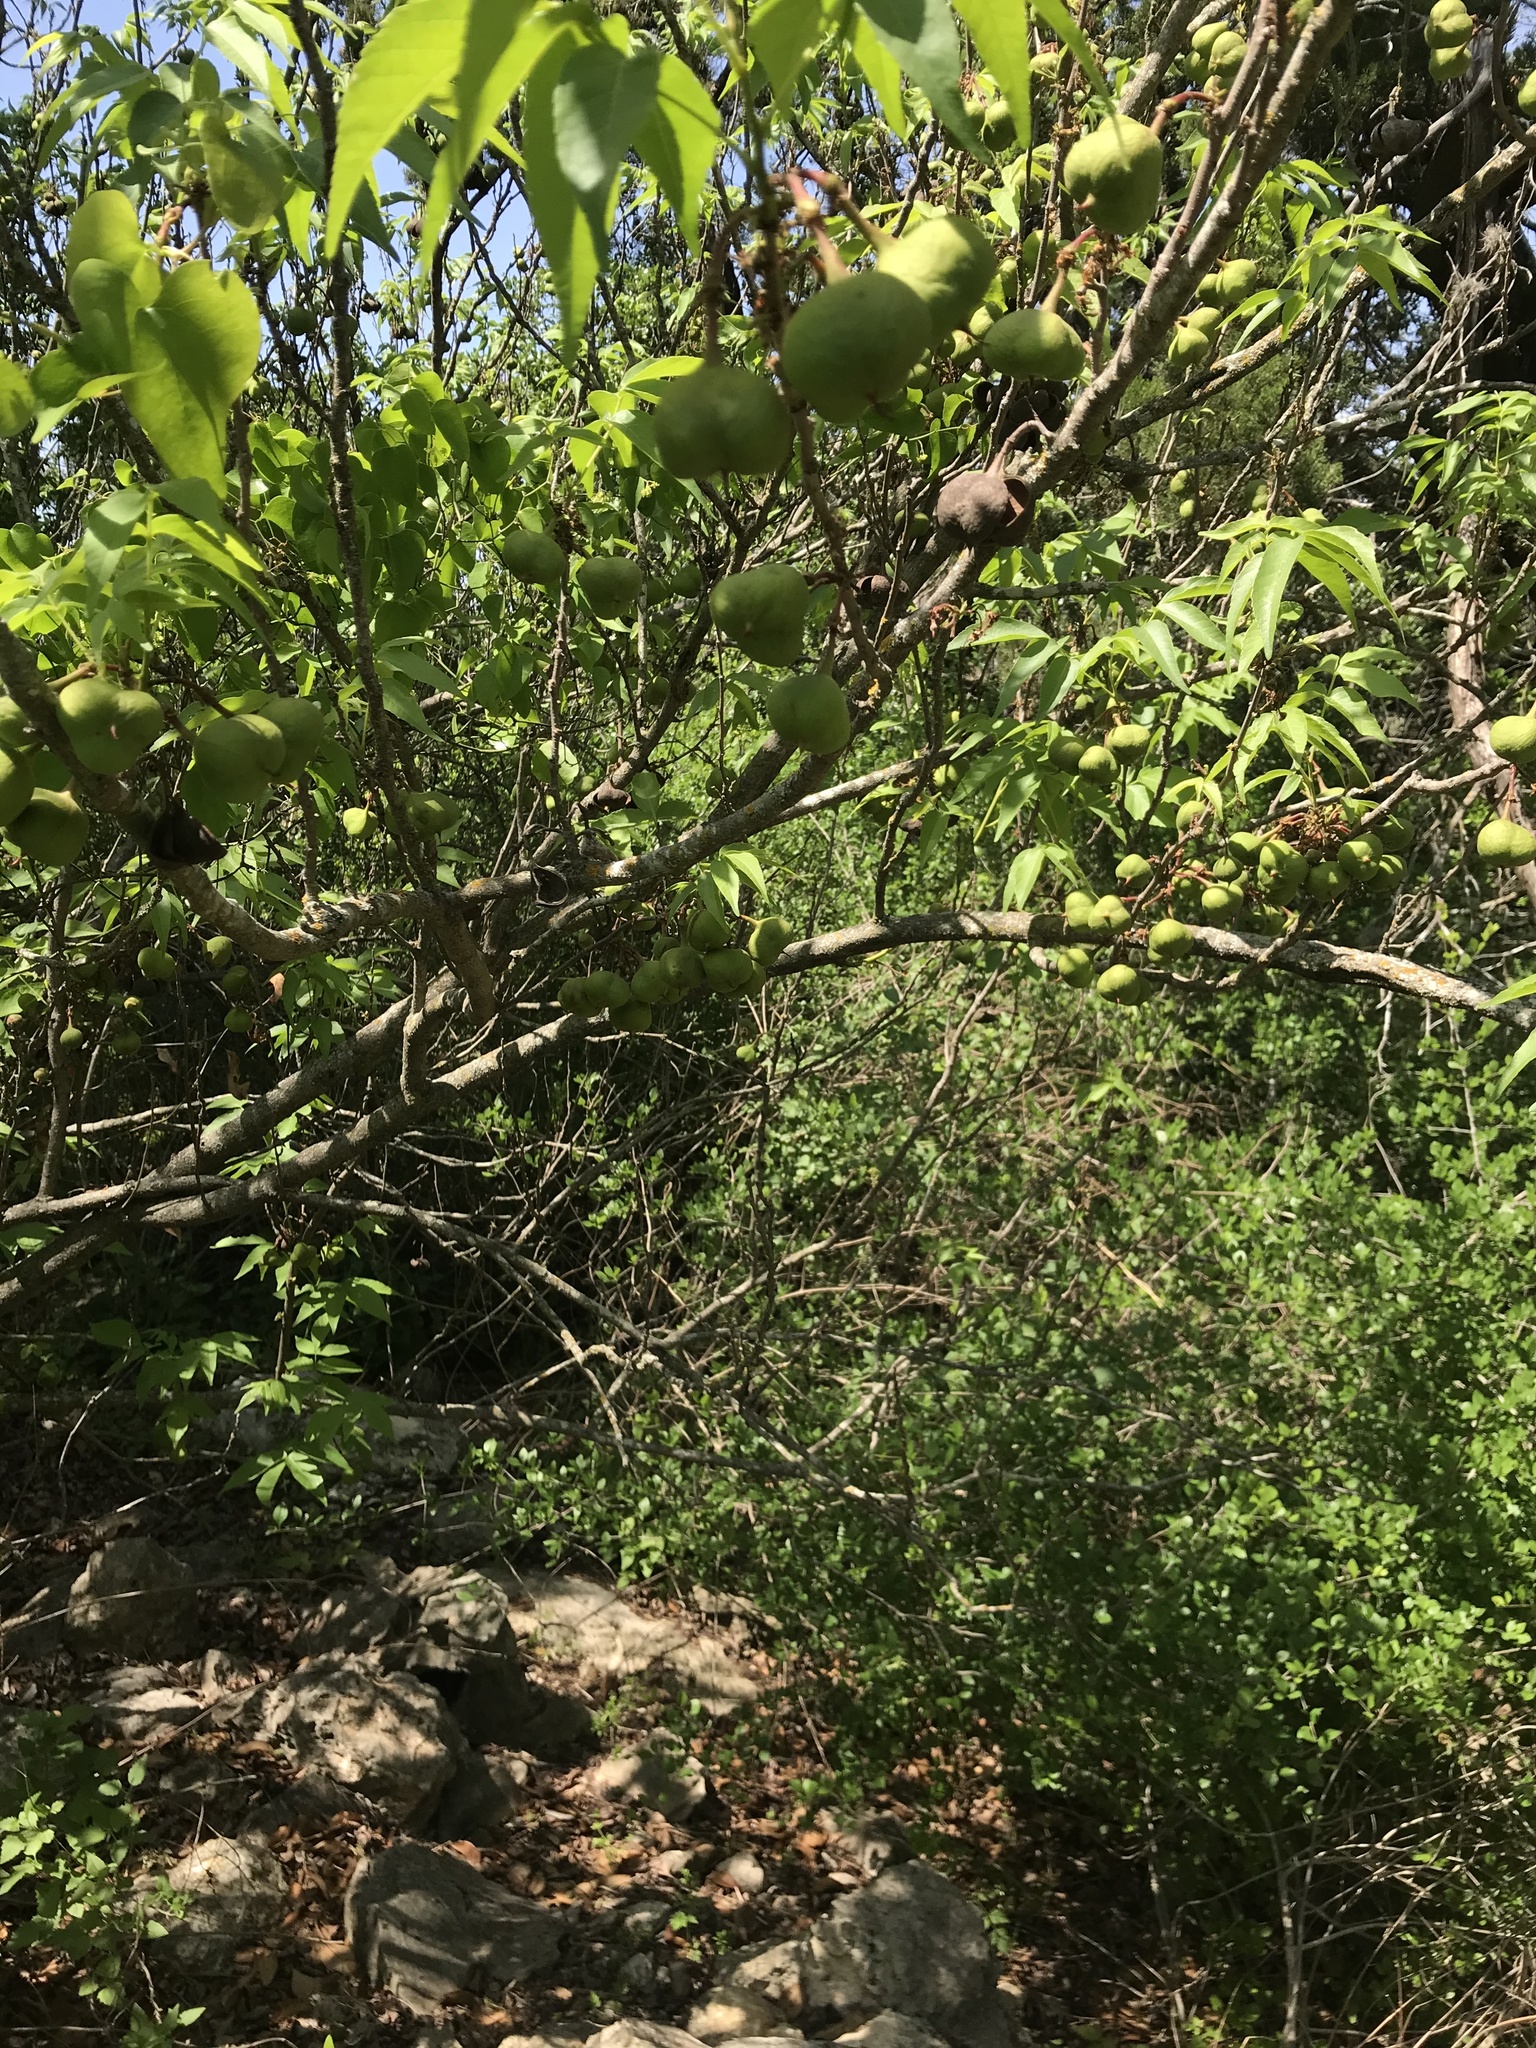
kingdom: Plantae
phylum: Tracheophyta
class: Magnoliopsida
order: Sapindales
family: Sapindaceae
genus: Ungnadia
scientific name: Ungnadia speciosa
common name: Texas-buckeye
